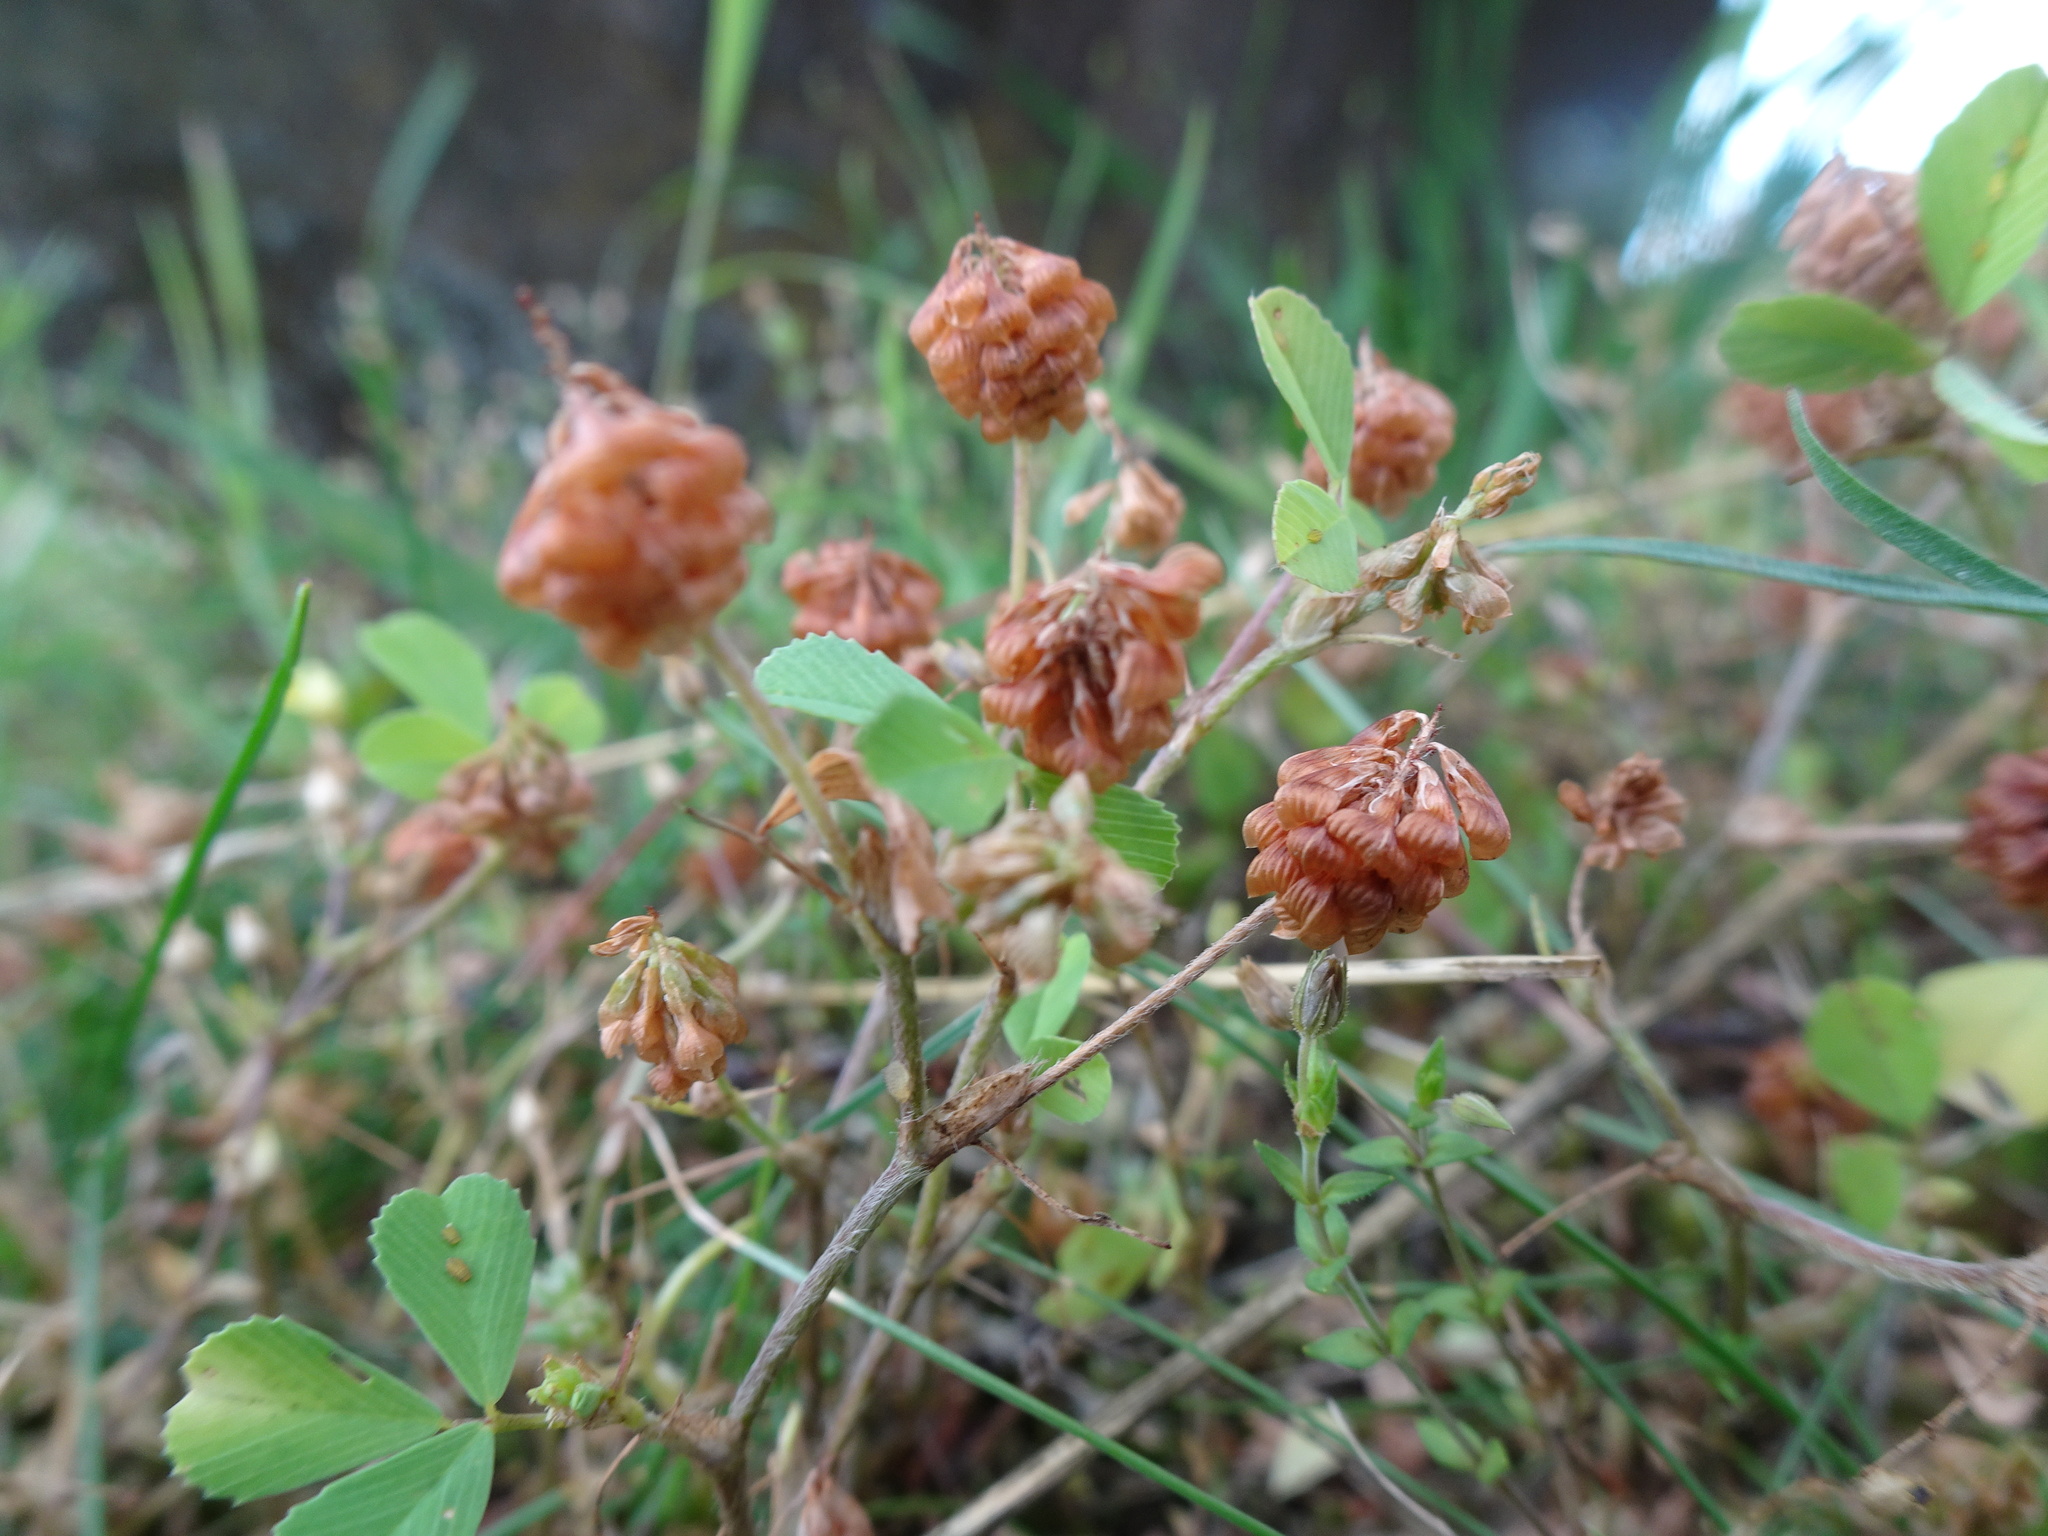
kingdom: Plantae
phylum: Tracheophyta
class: Magnoliopsida
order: Fabales
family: Fabaceae
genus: Trifolium
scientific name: Trifolium campestre
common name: Field clover
